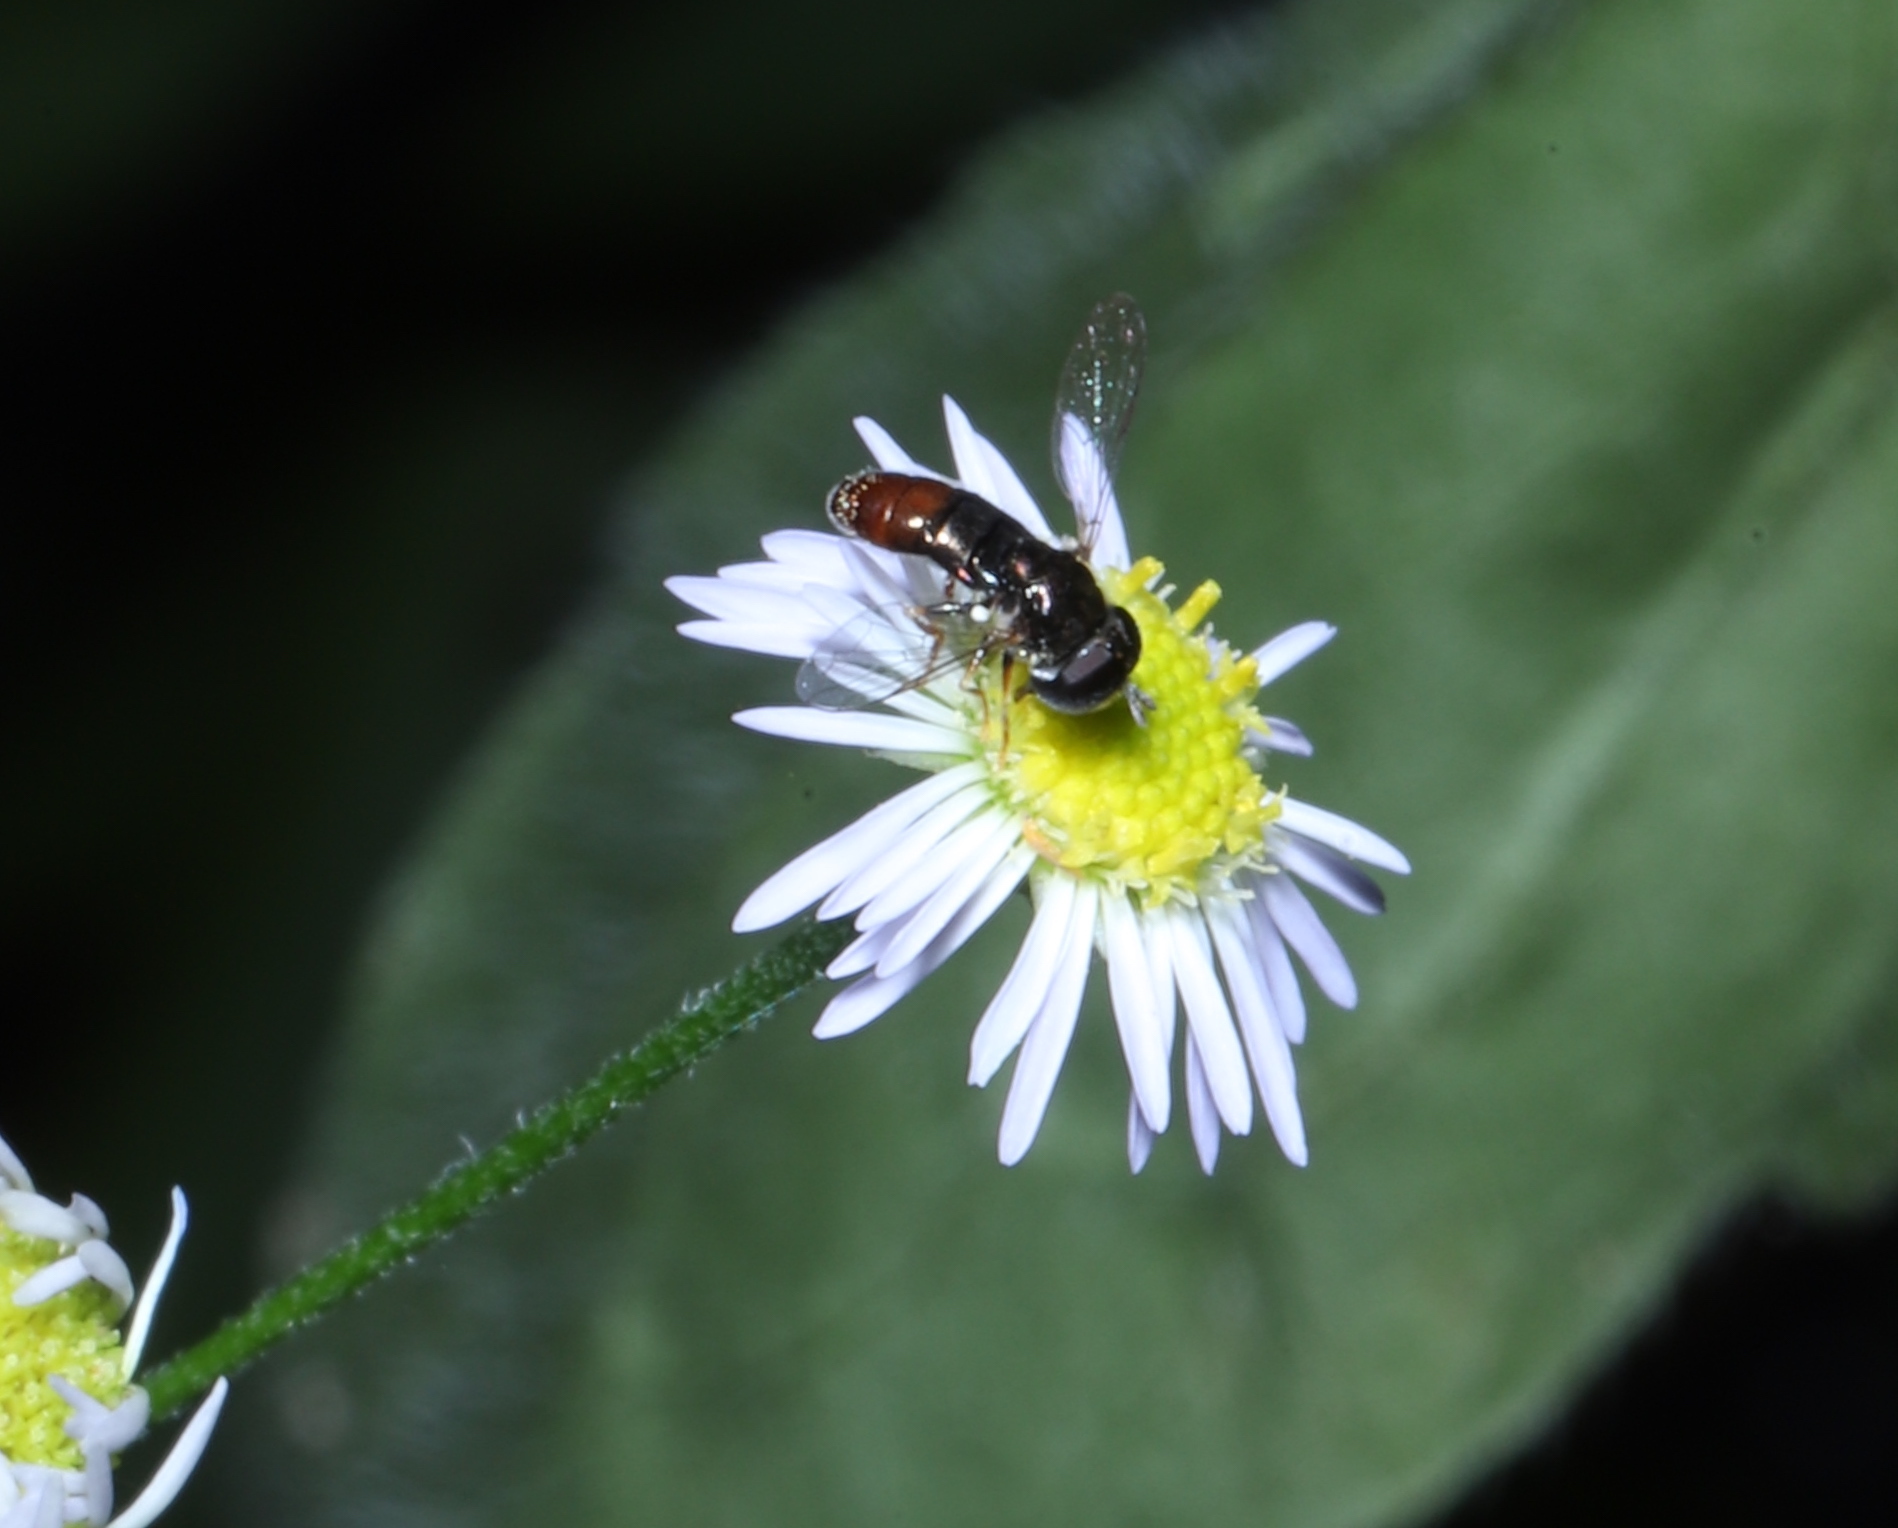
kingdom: Animalia
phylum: Arthropoda
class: Insecta
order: Diptera
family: Syrphidae
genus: Paragus
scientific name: Paragus haemorrhous
